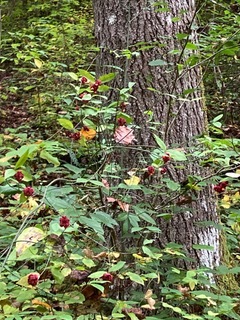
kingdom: Plantae
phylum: Tracheophyta
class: Magnoliopsida
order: Celastrales
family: Celastraceae
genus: Euonymus
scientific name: Euonymus americanus
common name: Bursting-heart
